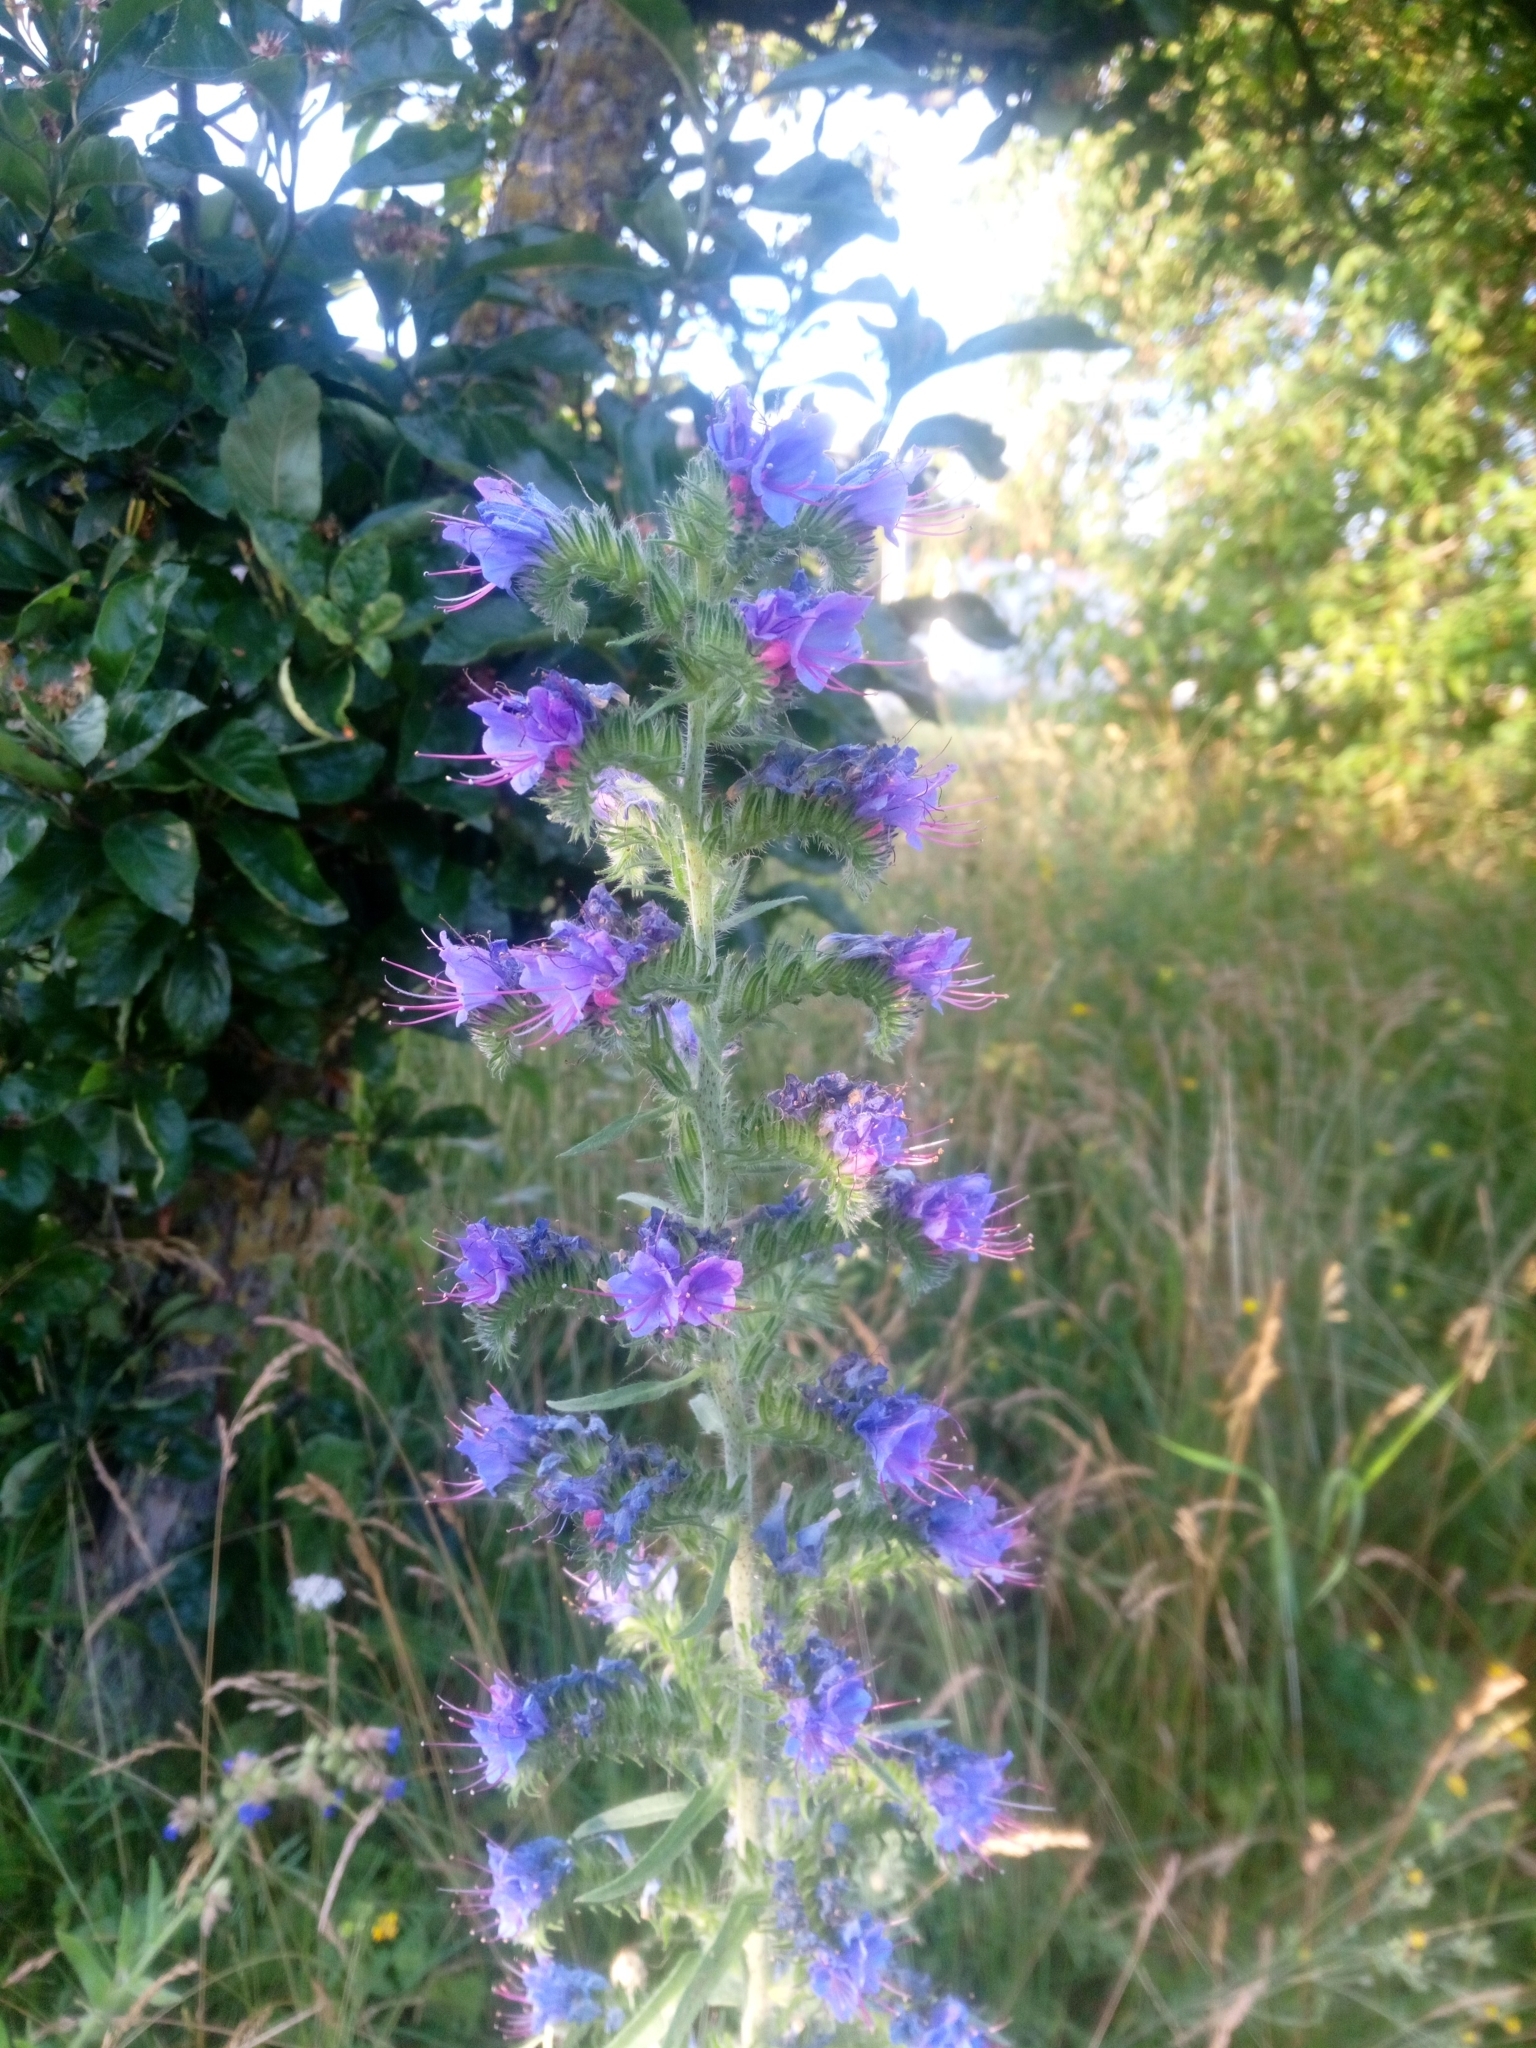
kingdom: Plantae
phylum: Tracheophyta
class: Magnoliopsida
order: Boraginales
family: Boraginaceae
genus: Echium
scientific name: Echium vulgare
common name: Common viper's bugloss
